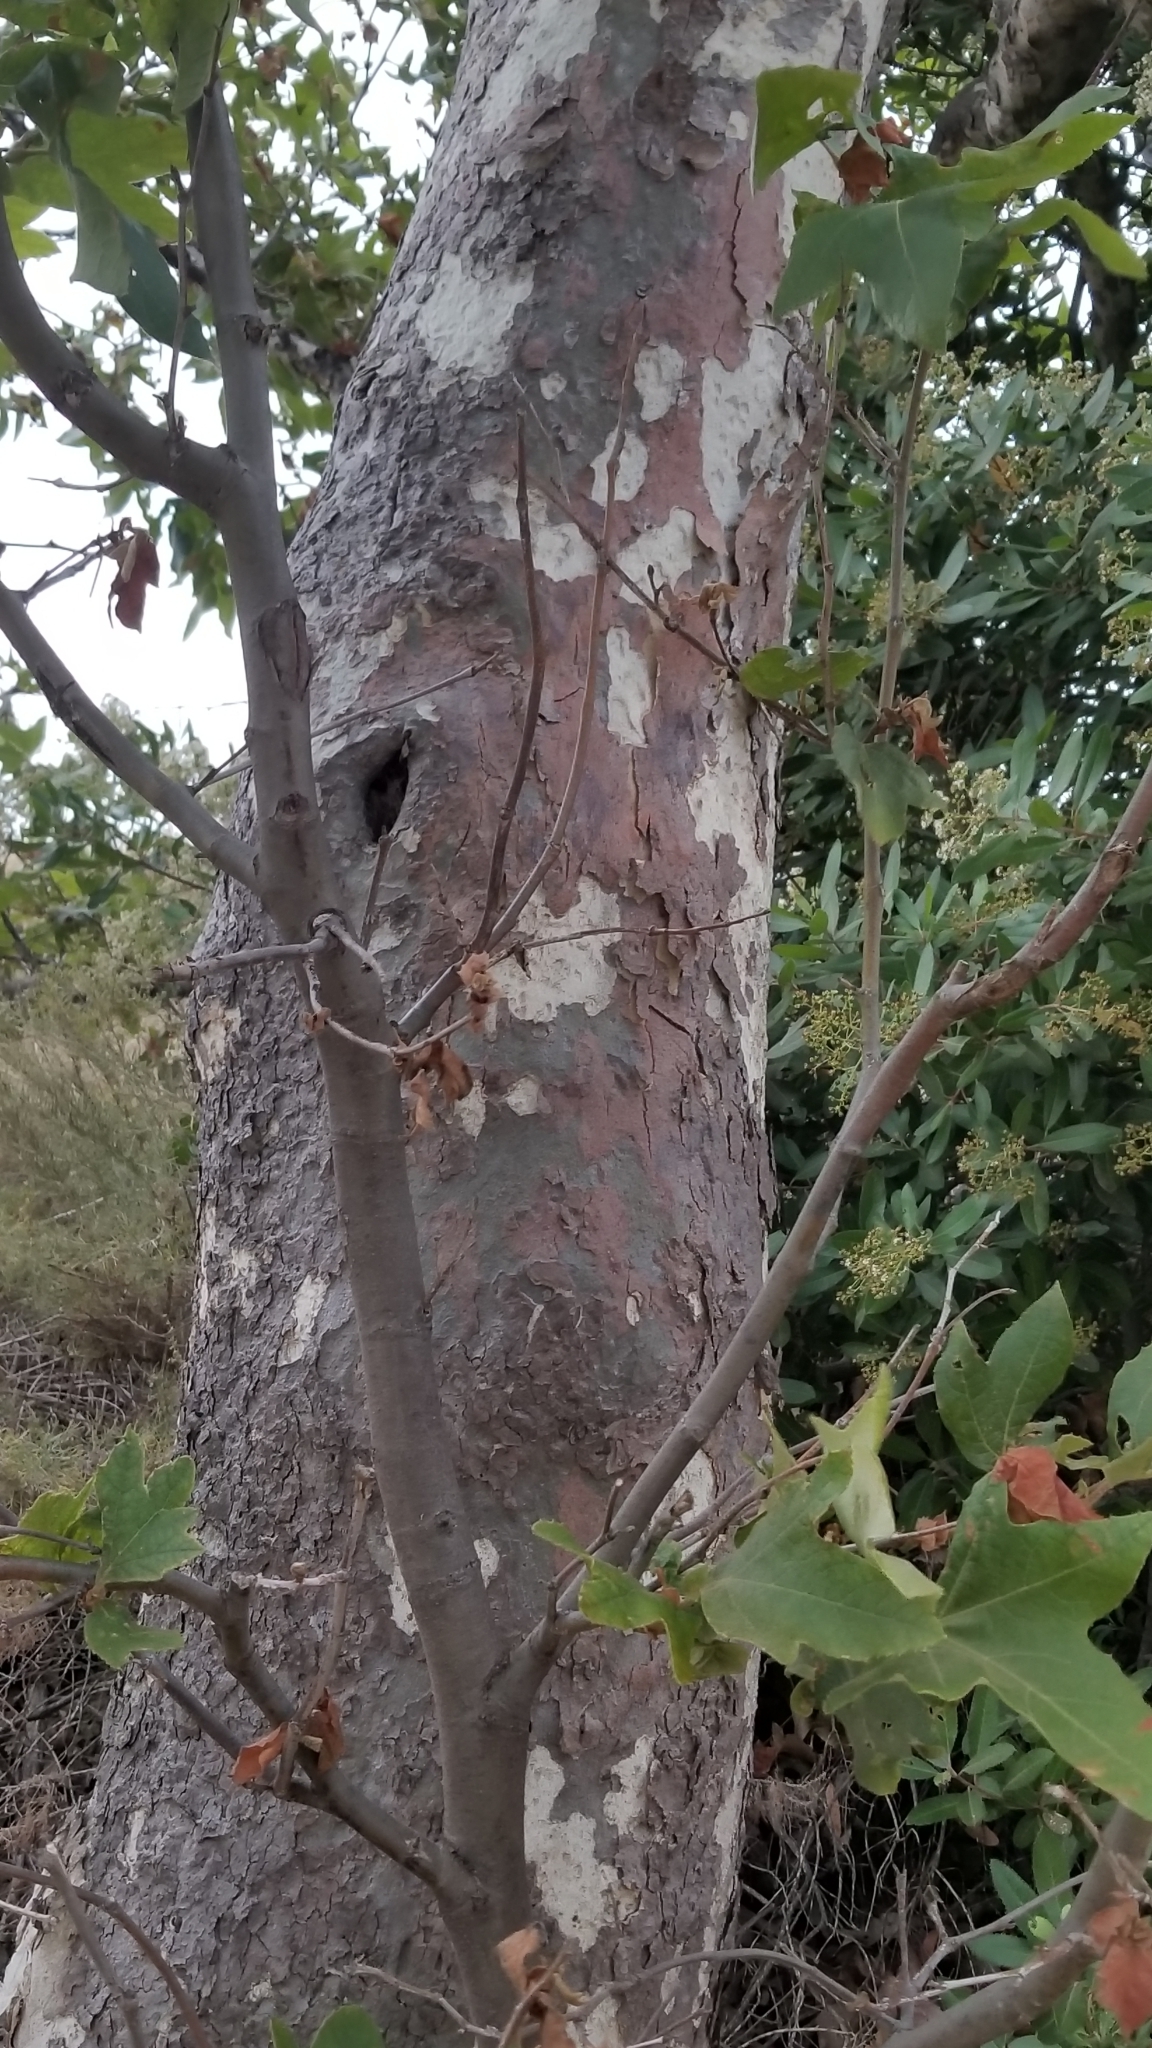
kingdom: Plantae
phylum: Tracheophyta
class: Magnoliopsida
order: Proteales
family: Platanaceae
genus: Platanus
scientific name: Platanus racemosa
